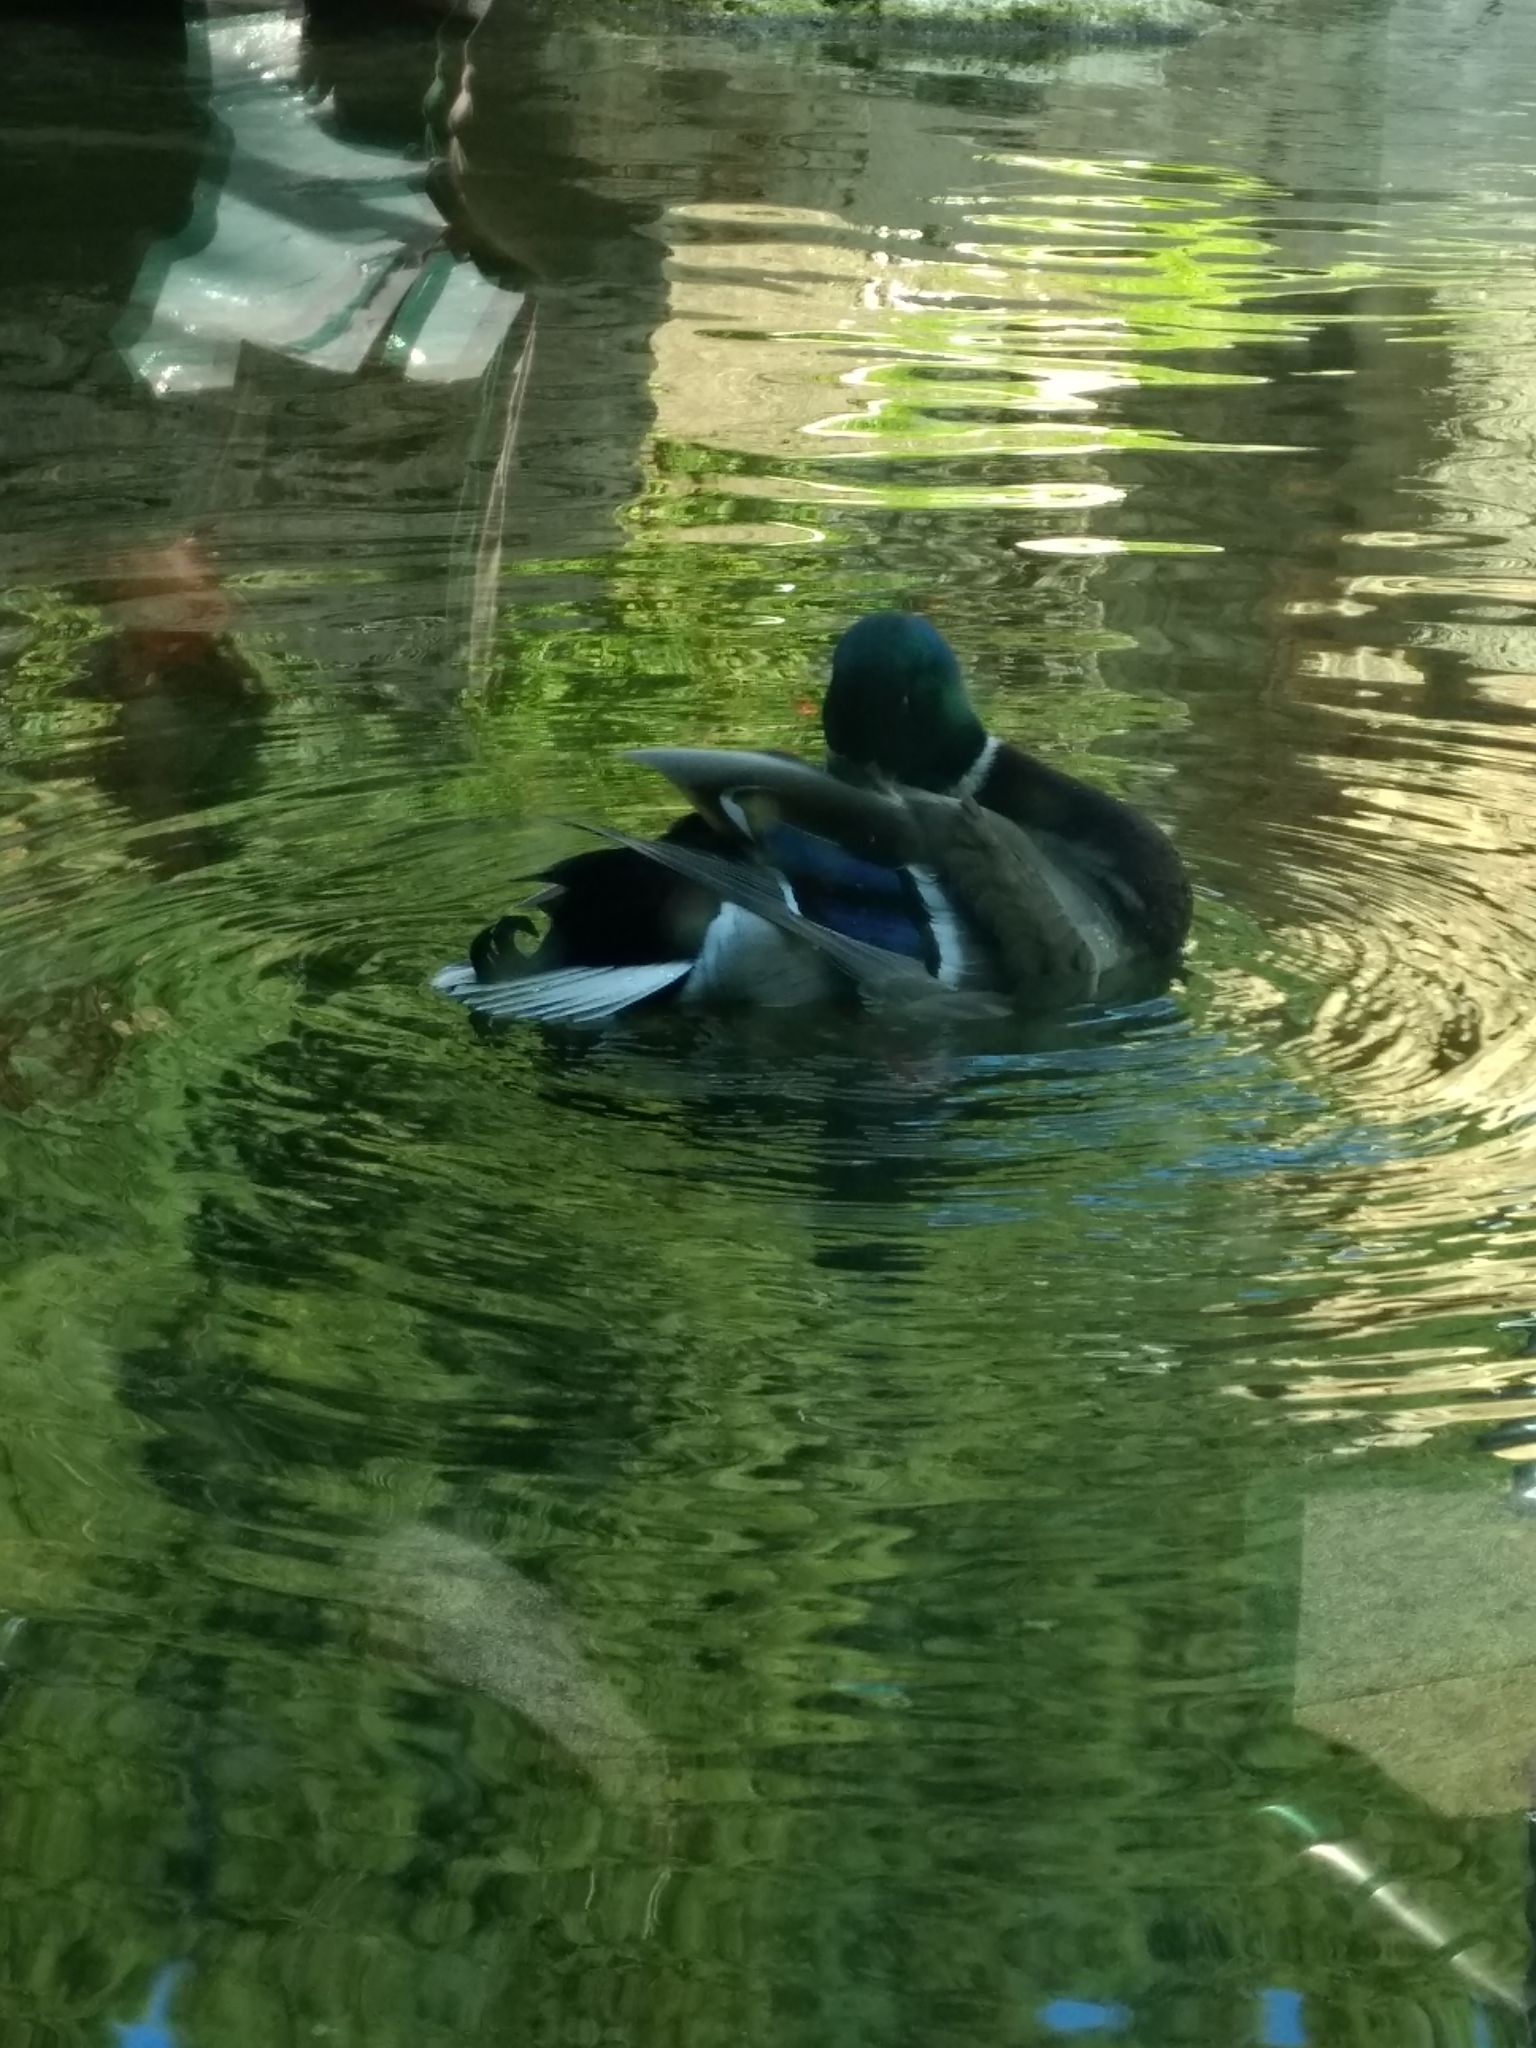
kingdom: Animalia
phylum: Chordata
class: Aves
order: Anseriformes
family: Anatidae
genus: Anas
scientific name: Anas platyrhynchos
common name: Mallard
